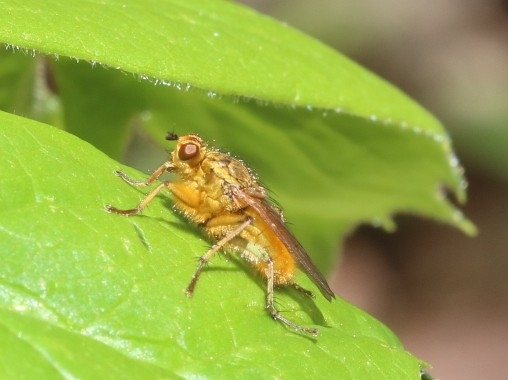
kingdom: Animalia
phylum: Arthropoda
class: Insecta
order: Diptera
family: Scathophagidae
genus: Scathophaga
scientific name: Scathophaga stercoraria
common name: Yellow dung fly
